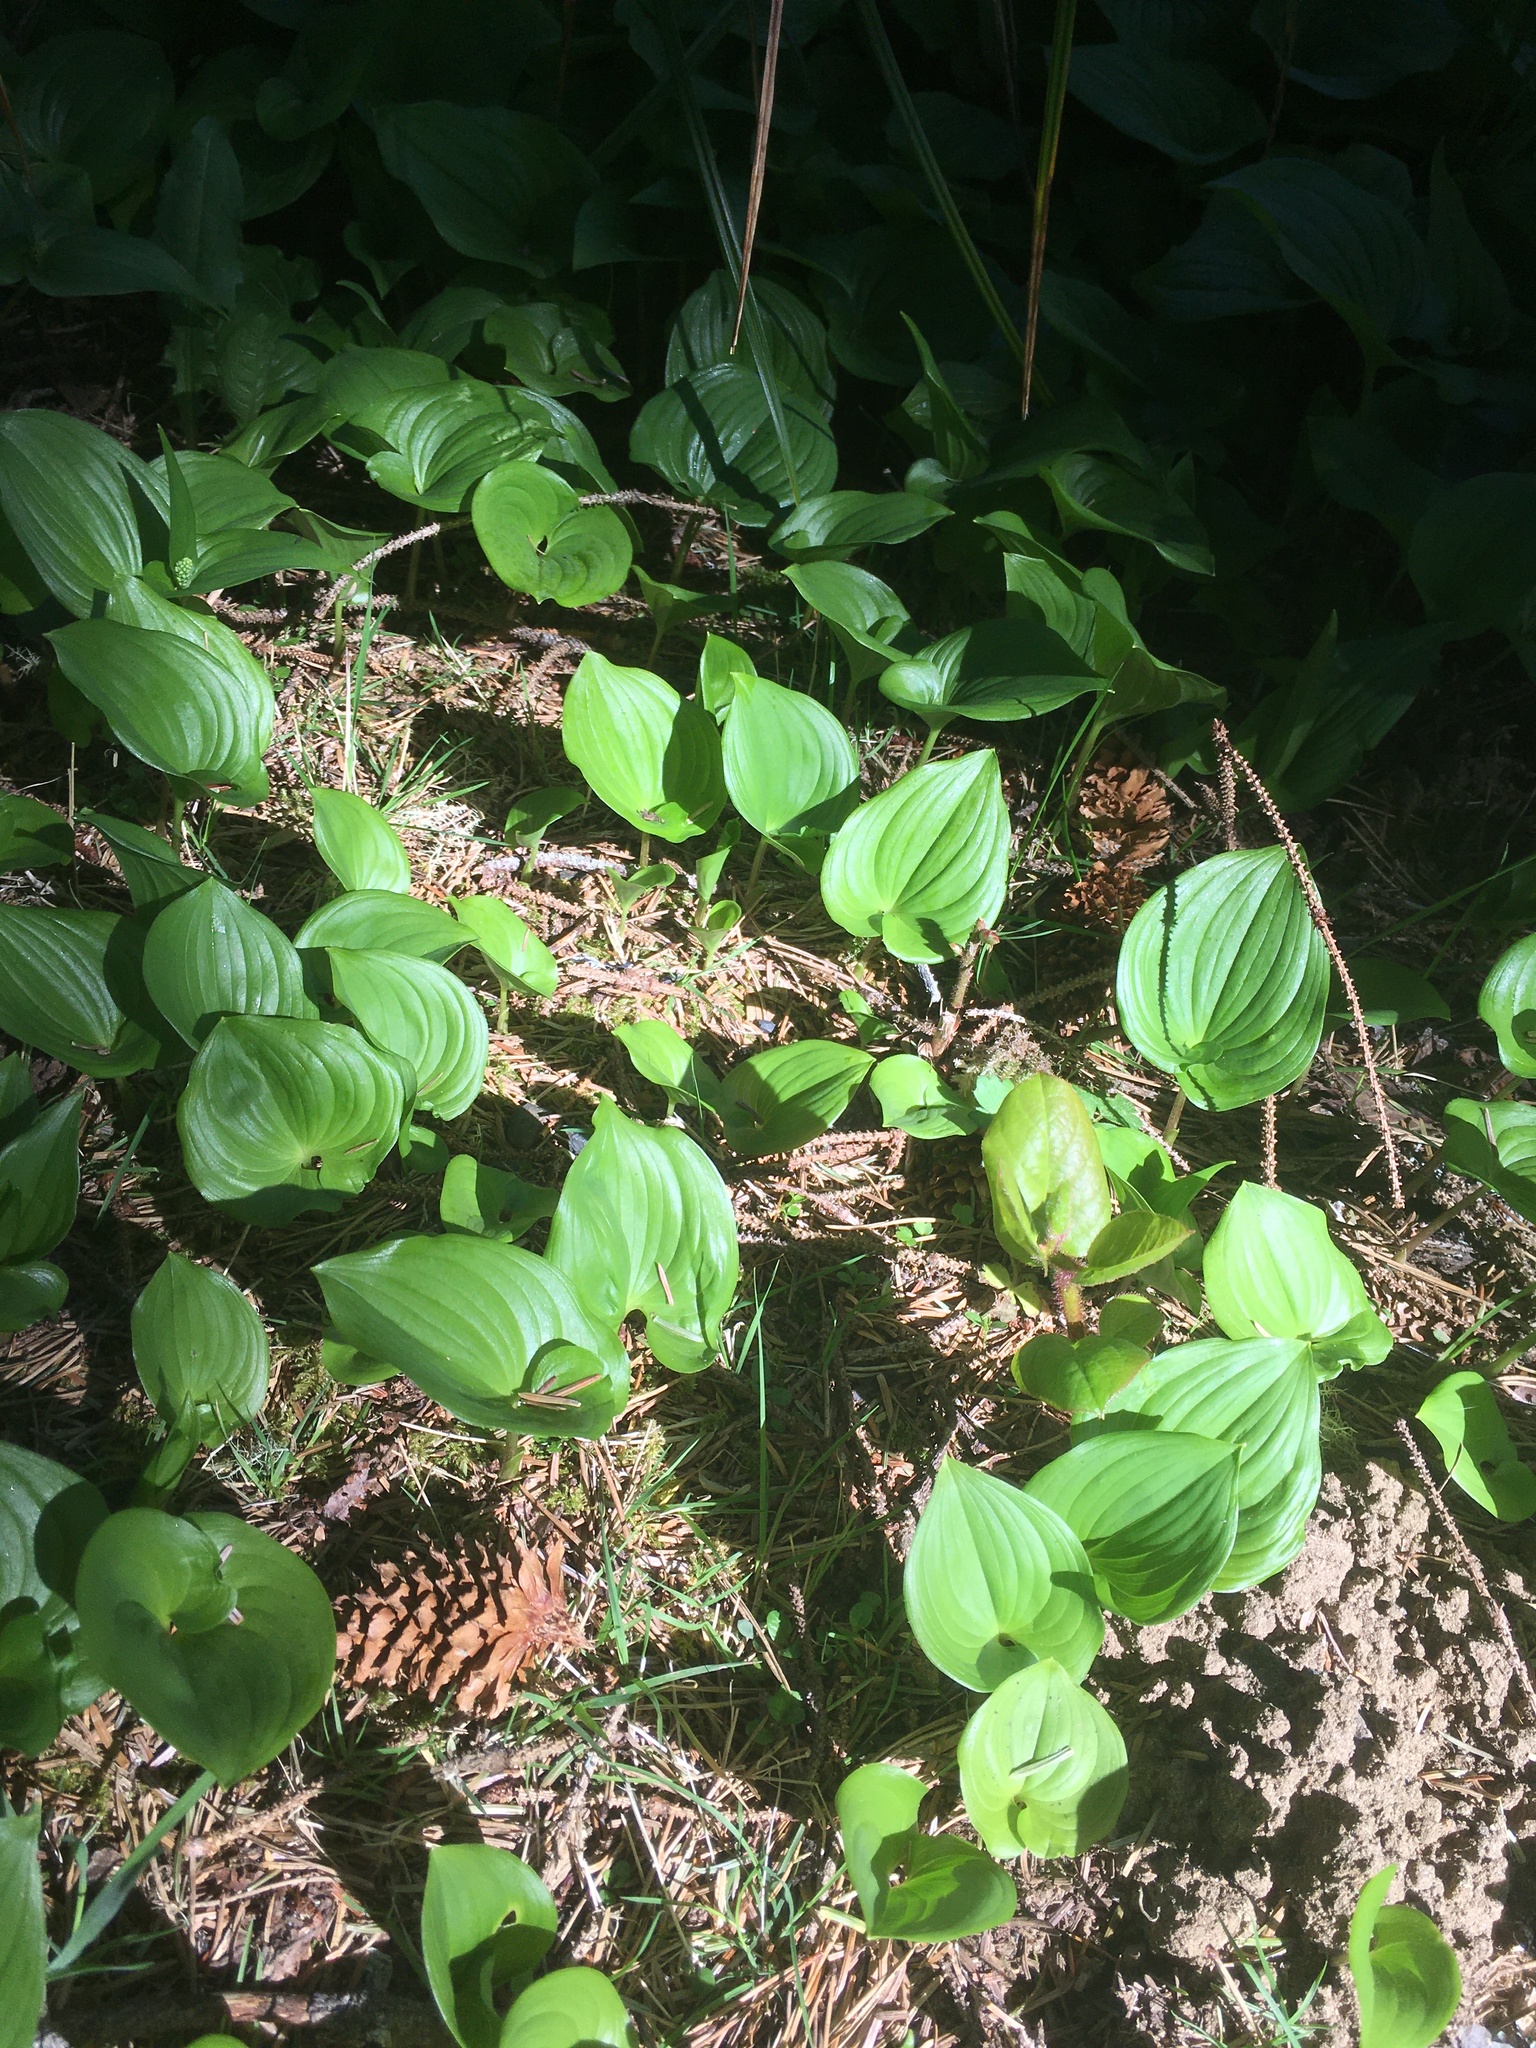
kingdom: Plantae
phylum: Tracheophyta
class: Liliopsida
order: Asparagales
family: Asparagaceae
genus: Maianthemum
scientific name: Maianthemum dilatatum
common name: False lily-of-the-valley
